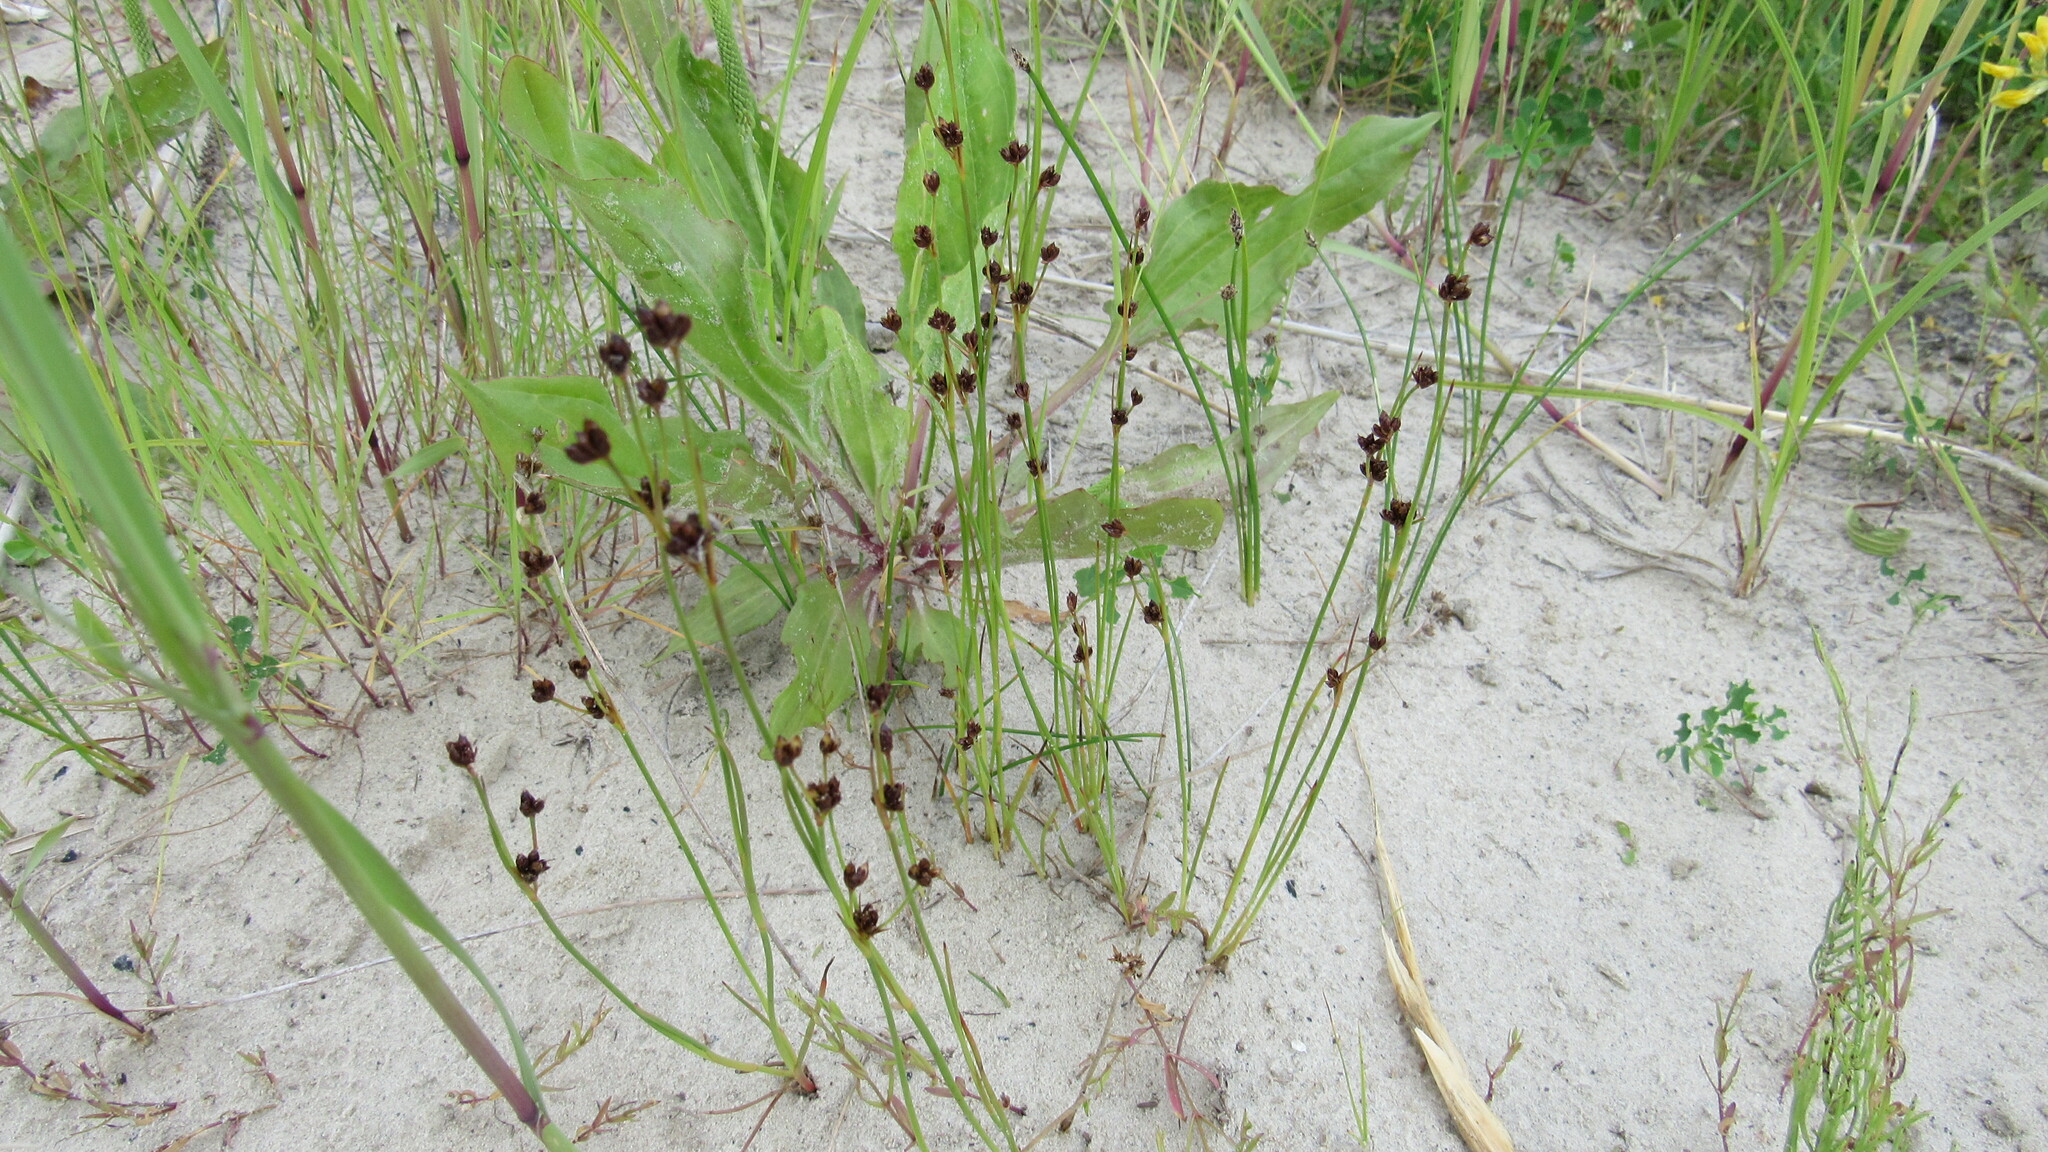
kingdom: Plantae
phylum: Tracheophyta
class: Liliopsida
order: Poales
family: Juncaceae
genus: Juncus
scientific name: Juncus bufonius
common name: Toad rush
